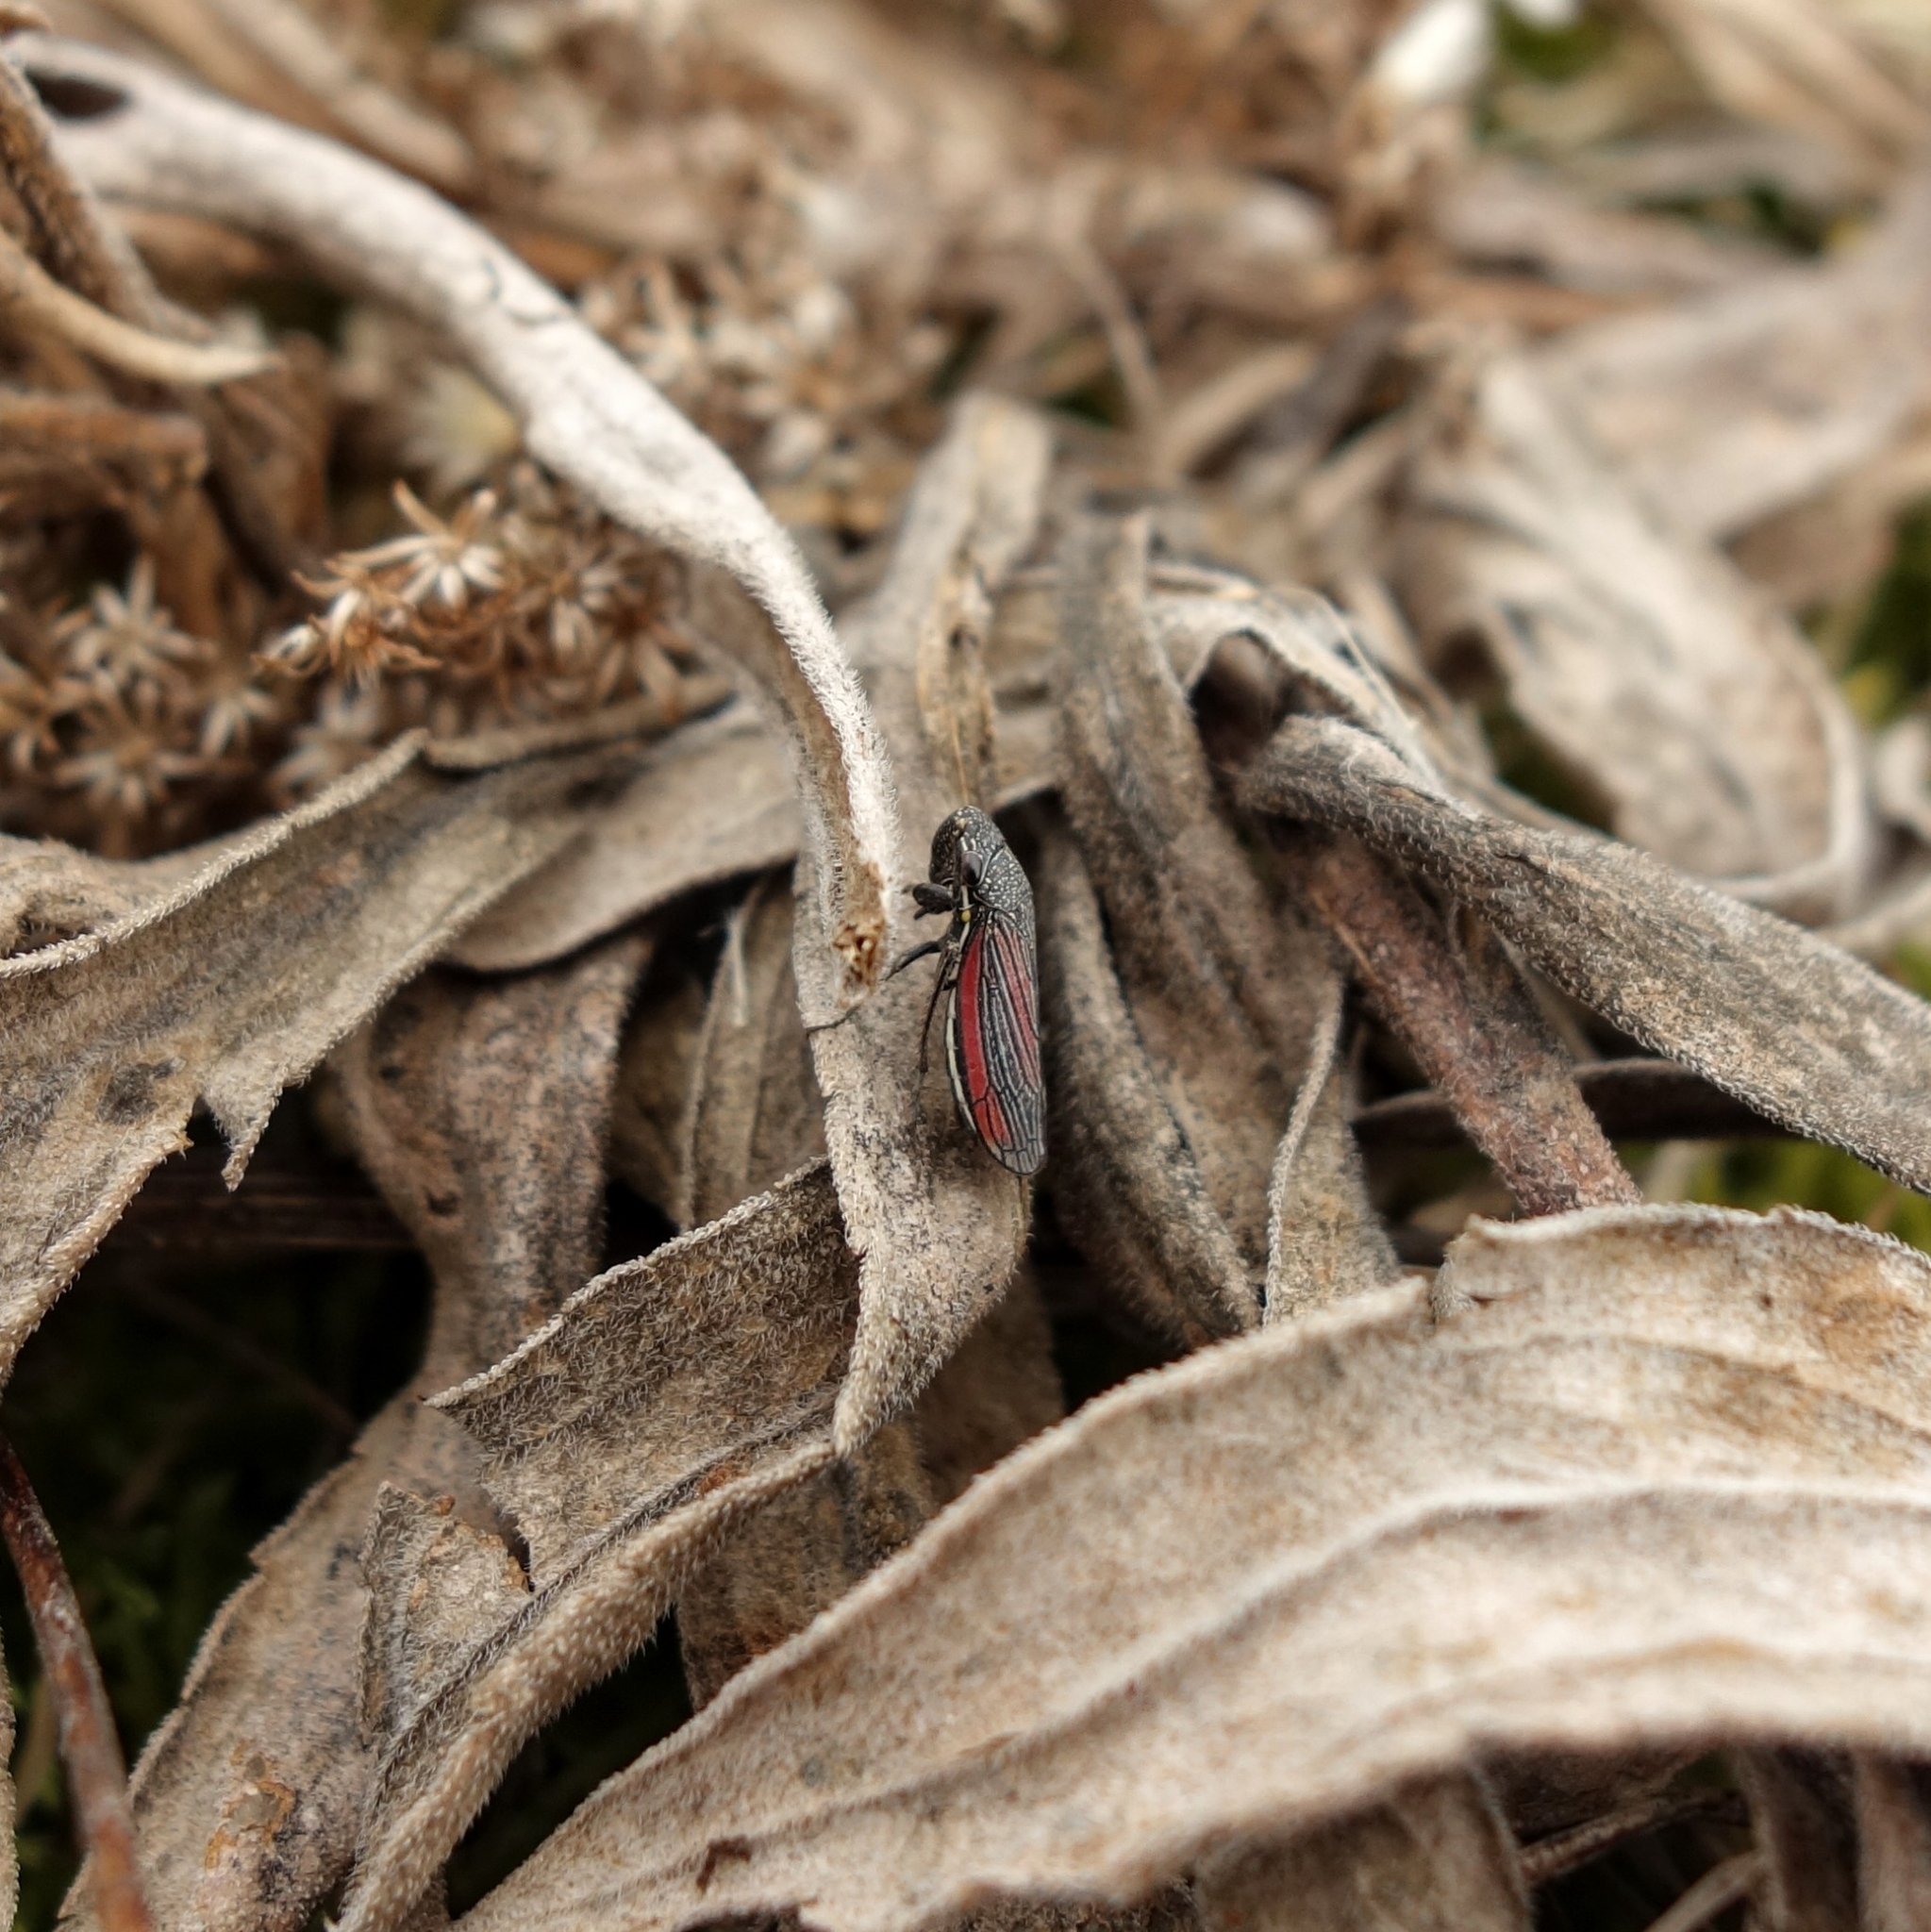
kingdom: Animalia
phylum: Arthropoda
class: Insecta
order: Hemiptera
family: Cicadellidae
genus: Cuerna
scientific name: Cuerna striata
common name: Striped leafhopper
